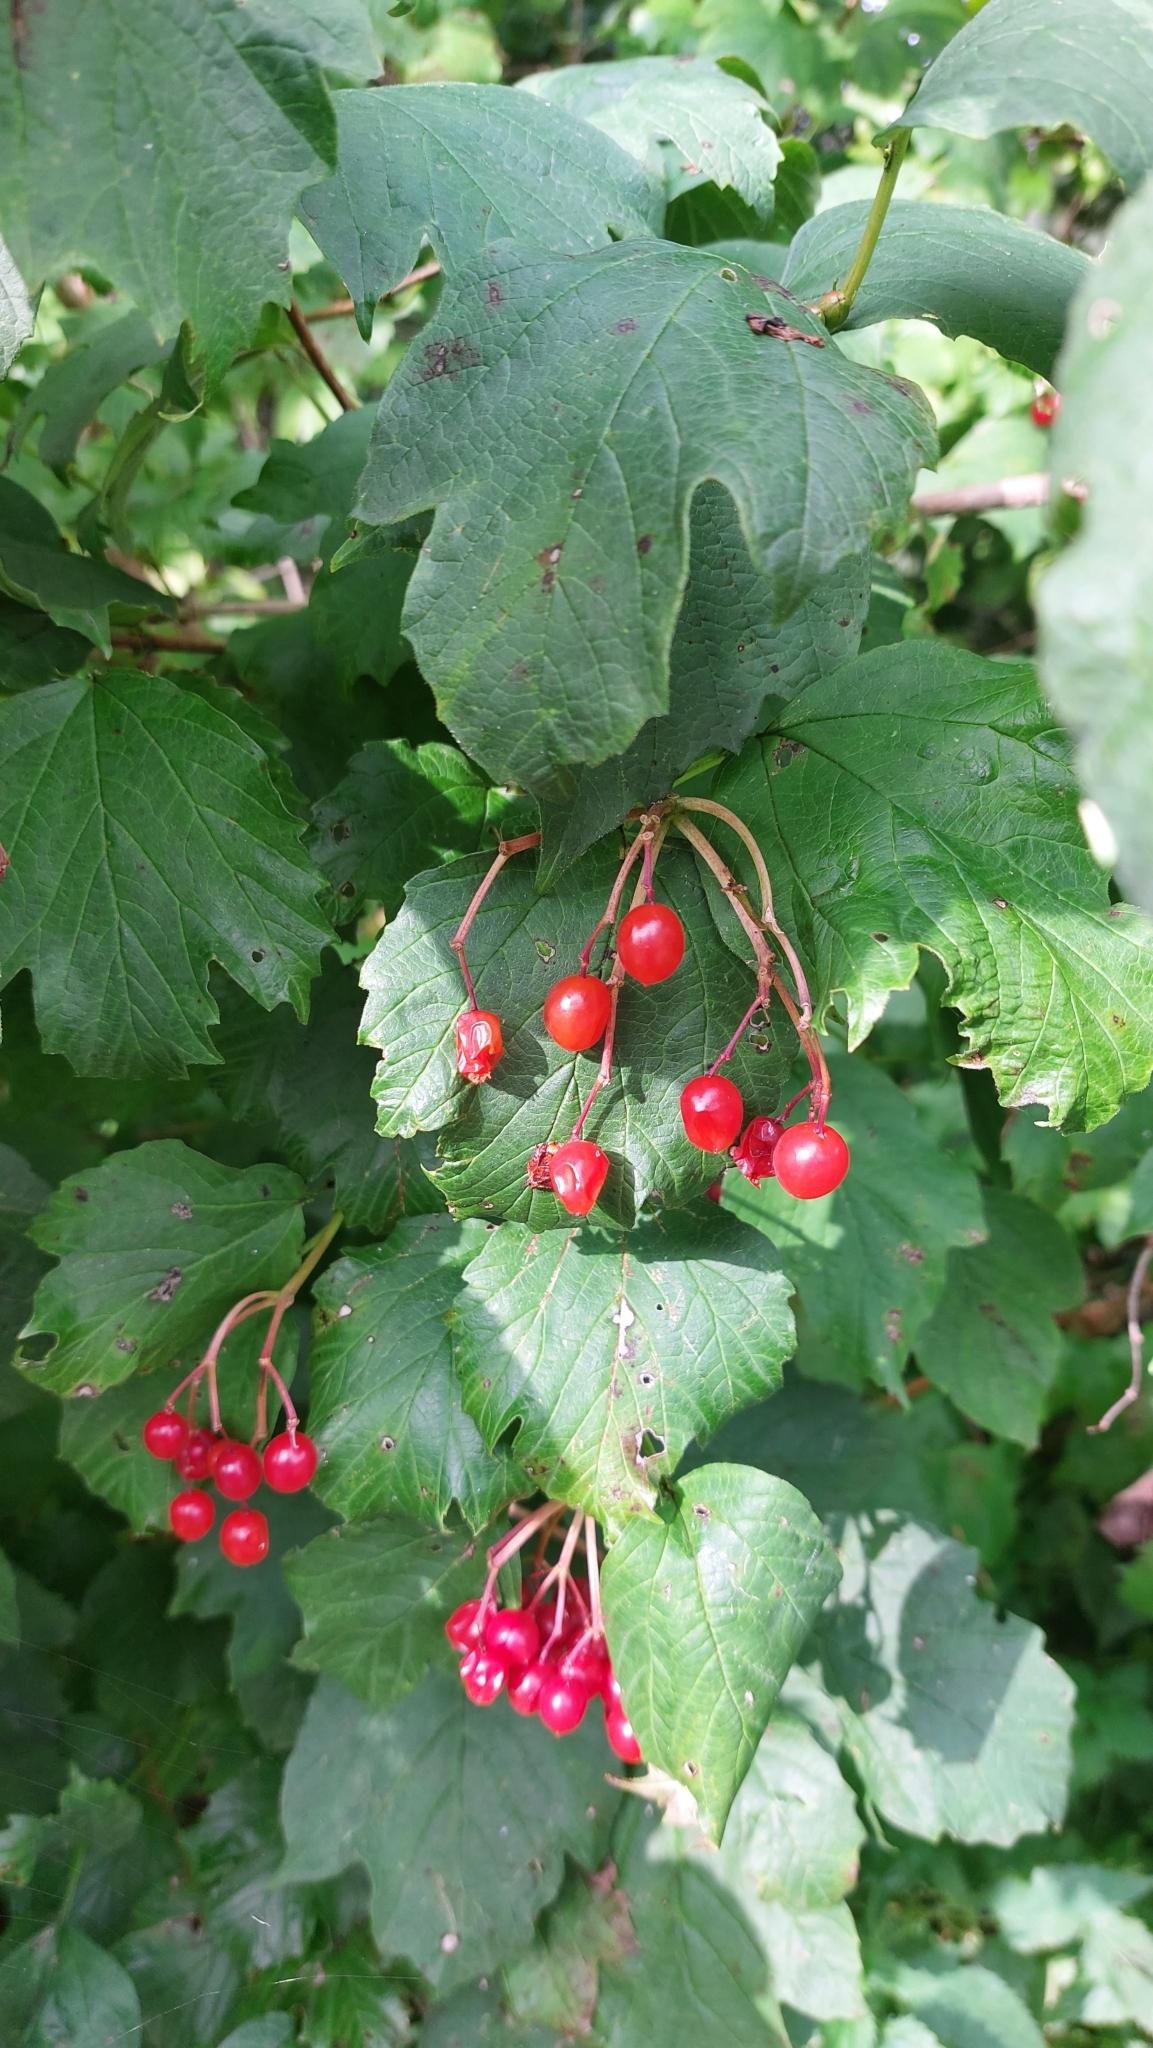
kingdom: Plantae
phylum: Tracheophyta
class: Magnoliopsida
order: Dipsacales
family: Viburnaceae
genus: Viburnum
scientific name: Viburnum opulus
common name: Guelder-rose
